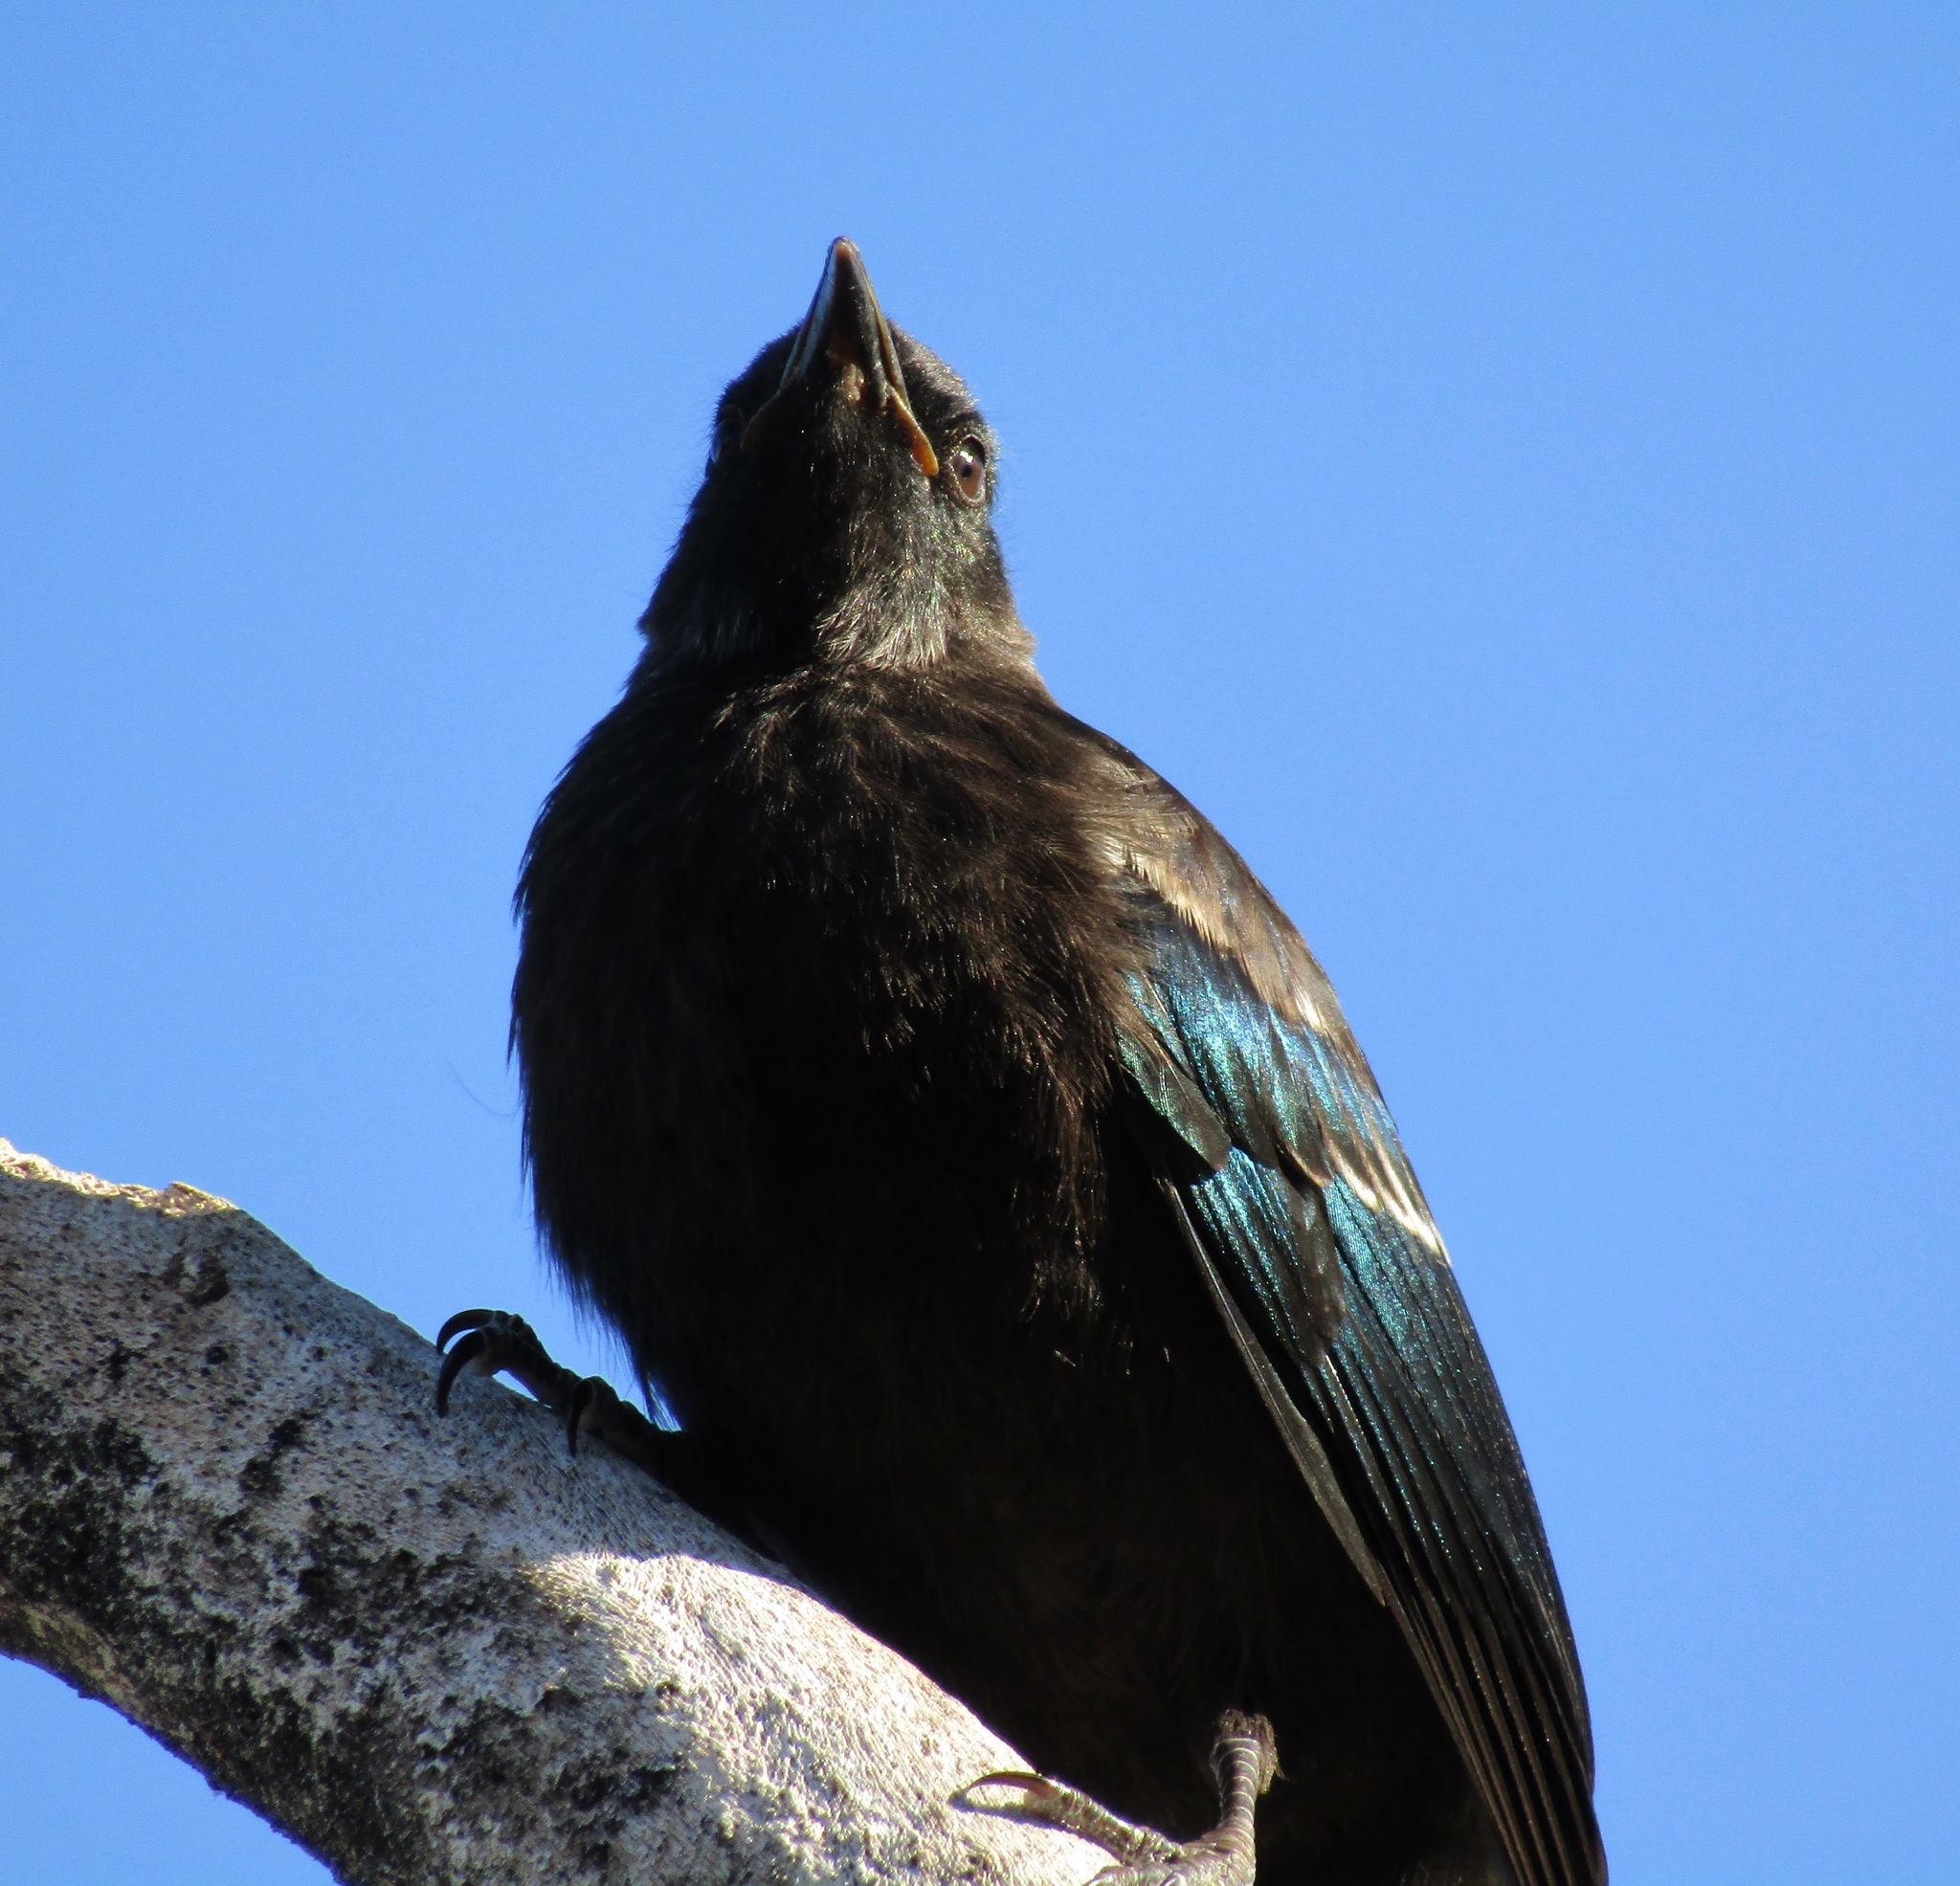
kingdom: Animalia
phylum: Chordata
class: Aves
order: Passeriformes
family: Meliphagidae
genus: Prosthemadera
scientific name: Prosthemadera novaeseelandiae
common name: Tui
